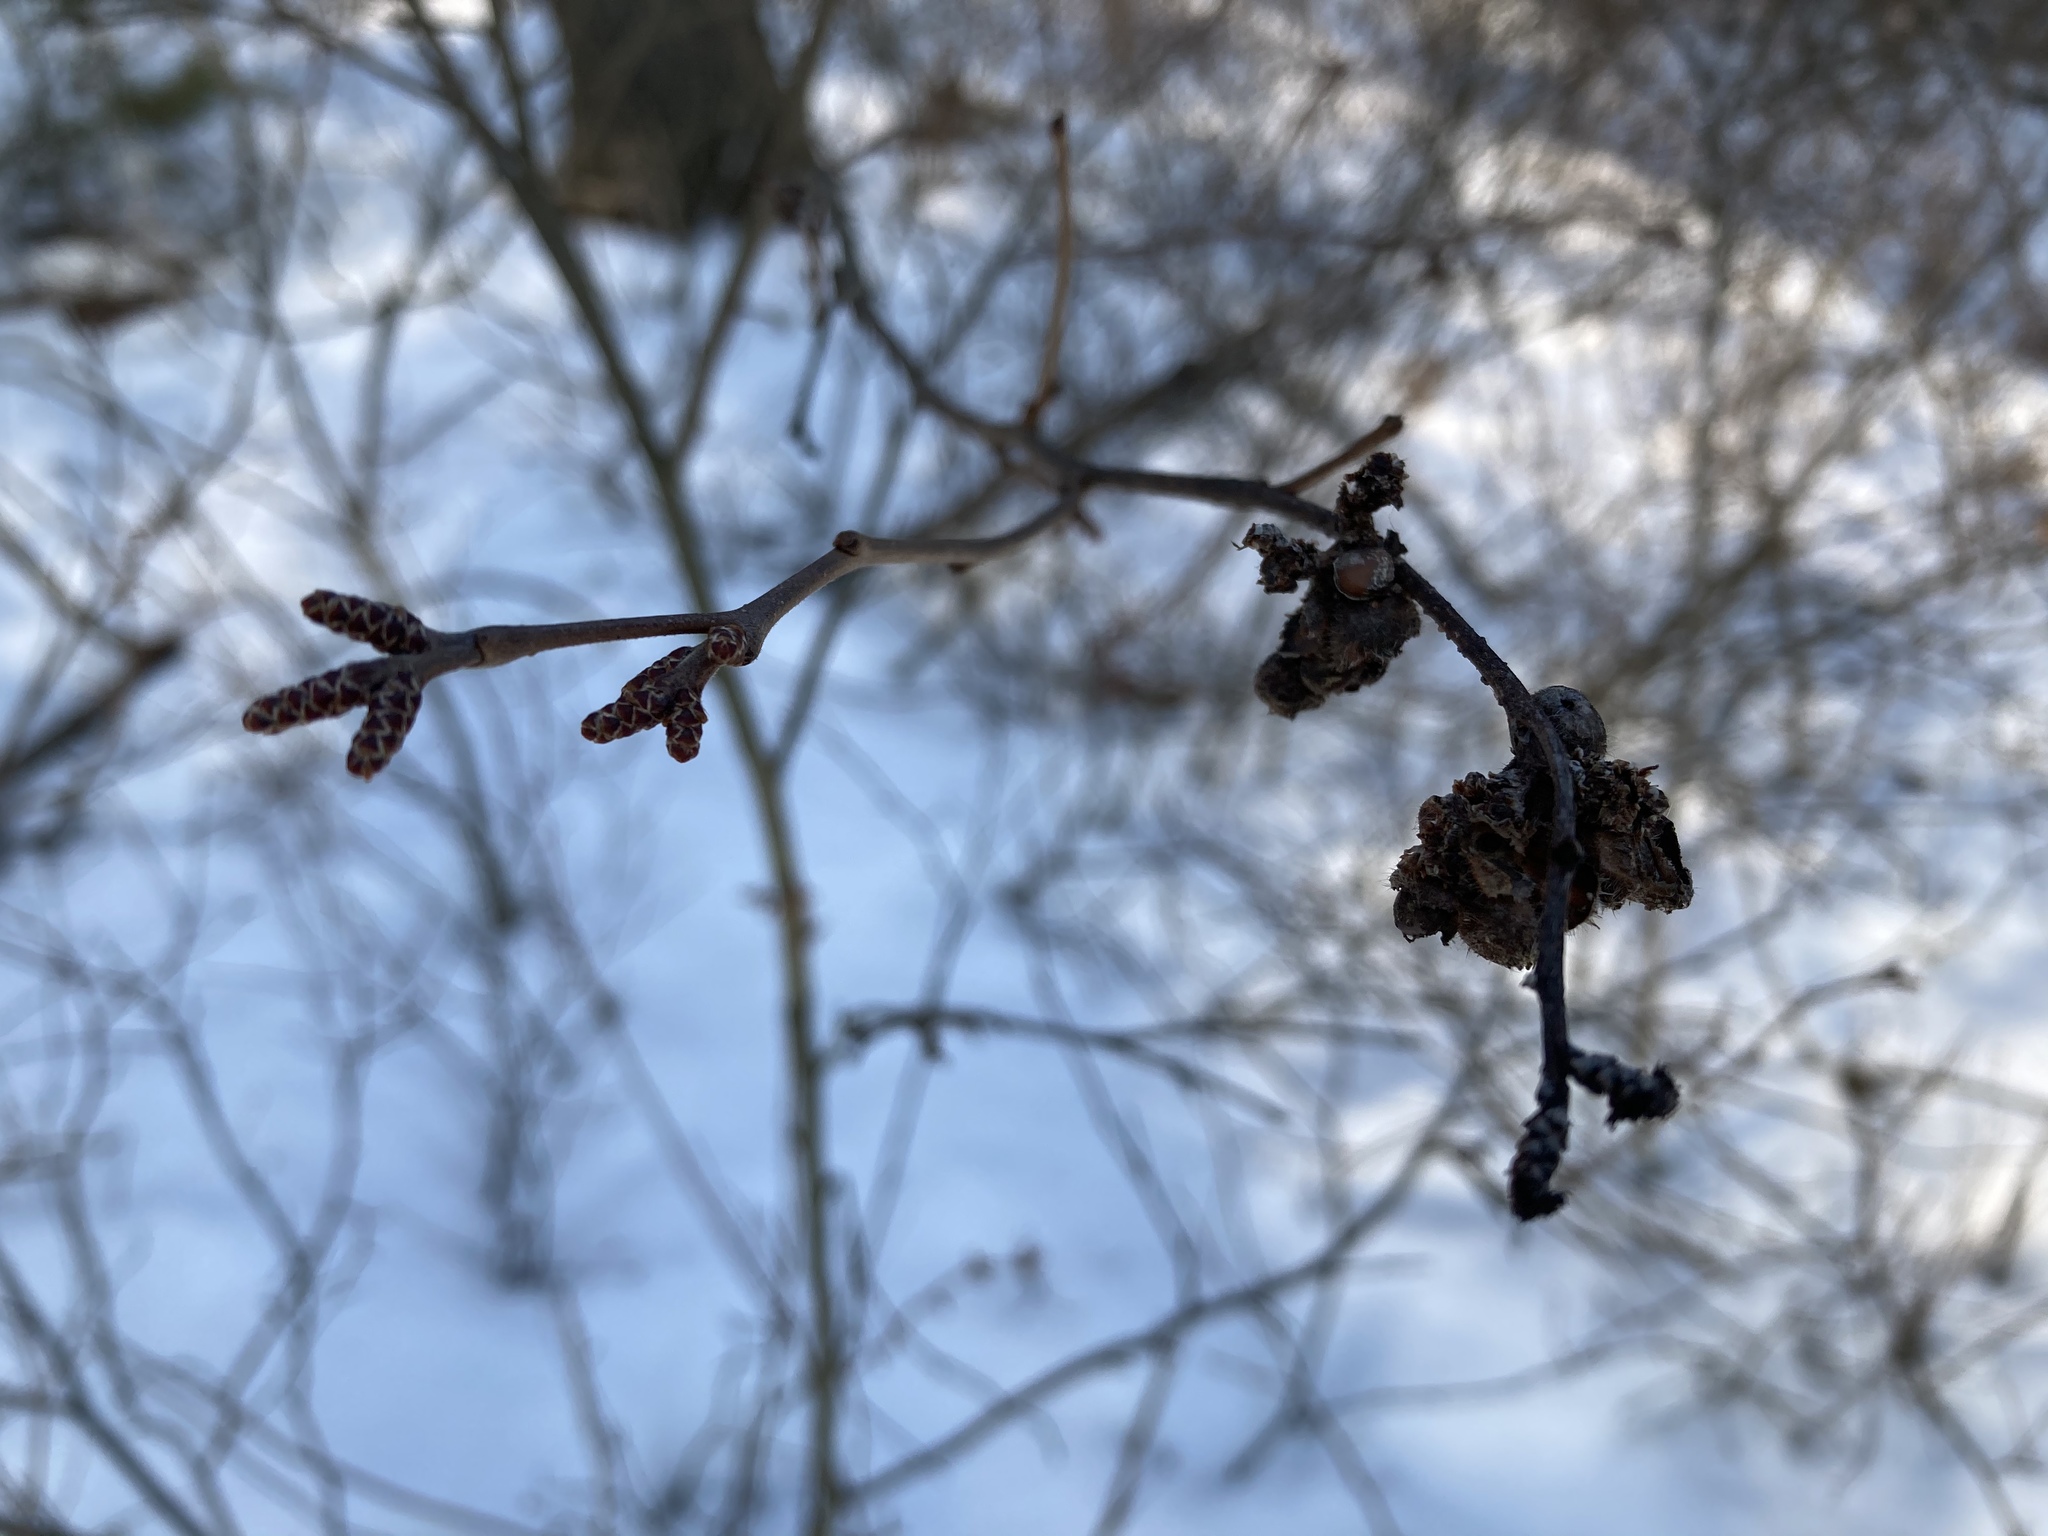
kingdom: Plantae
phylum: Tracheophyta
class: Magnoliopsida
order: Sapindales
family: Anacardiaceae
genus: Rhus
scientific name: Rhus aromatica
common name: Aromatic sumac
